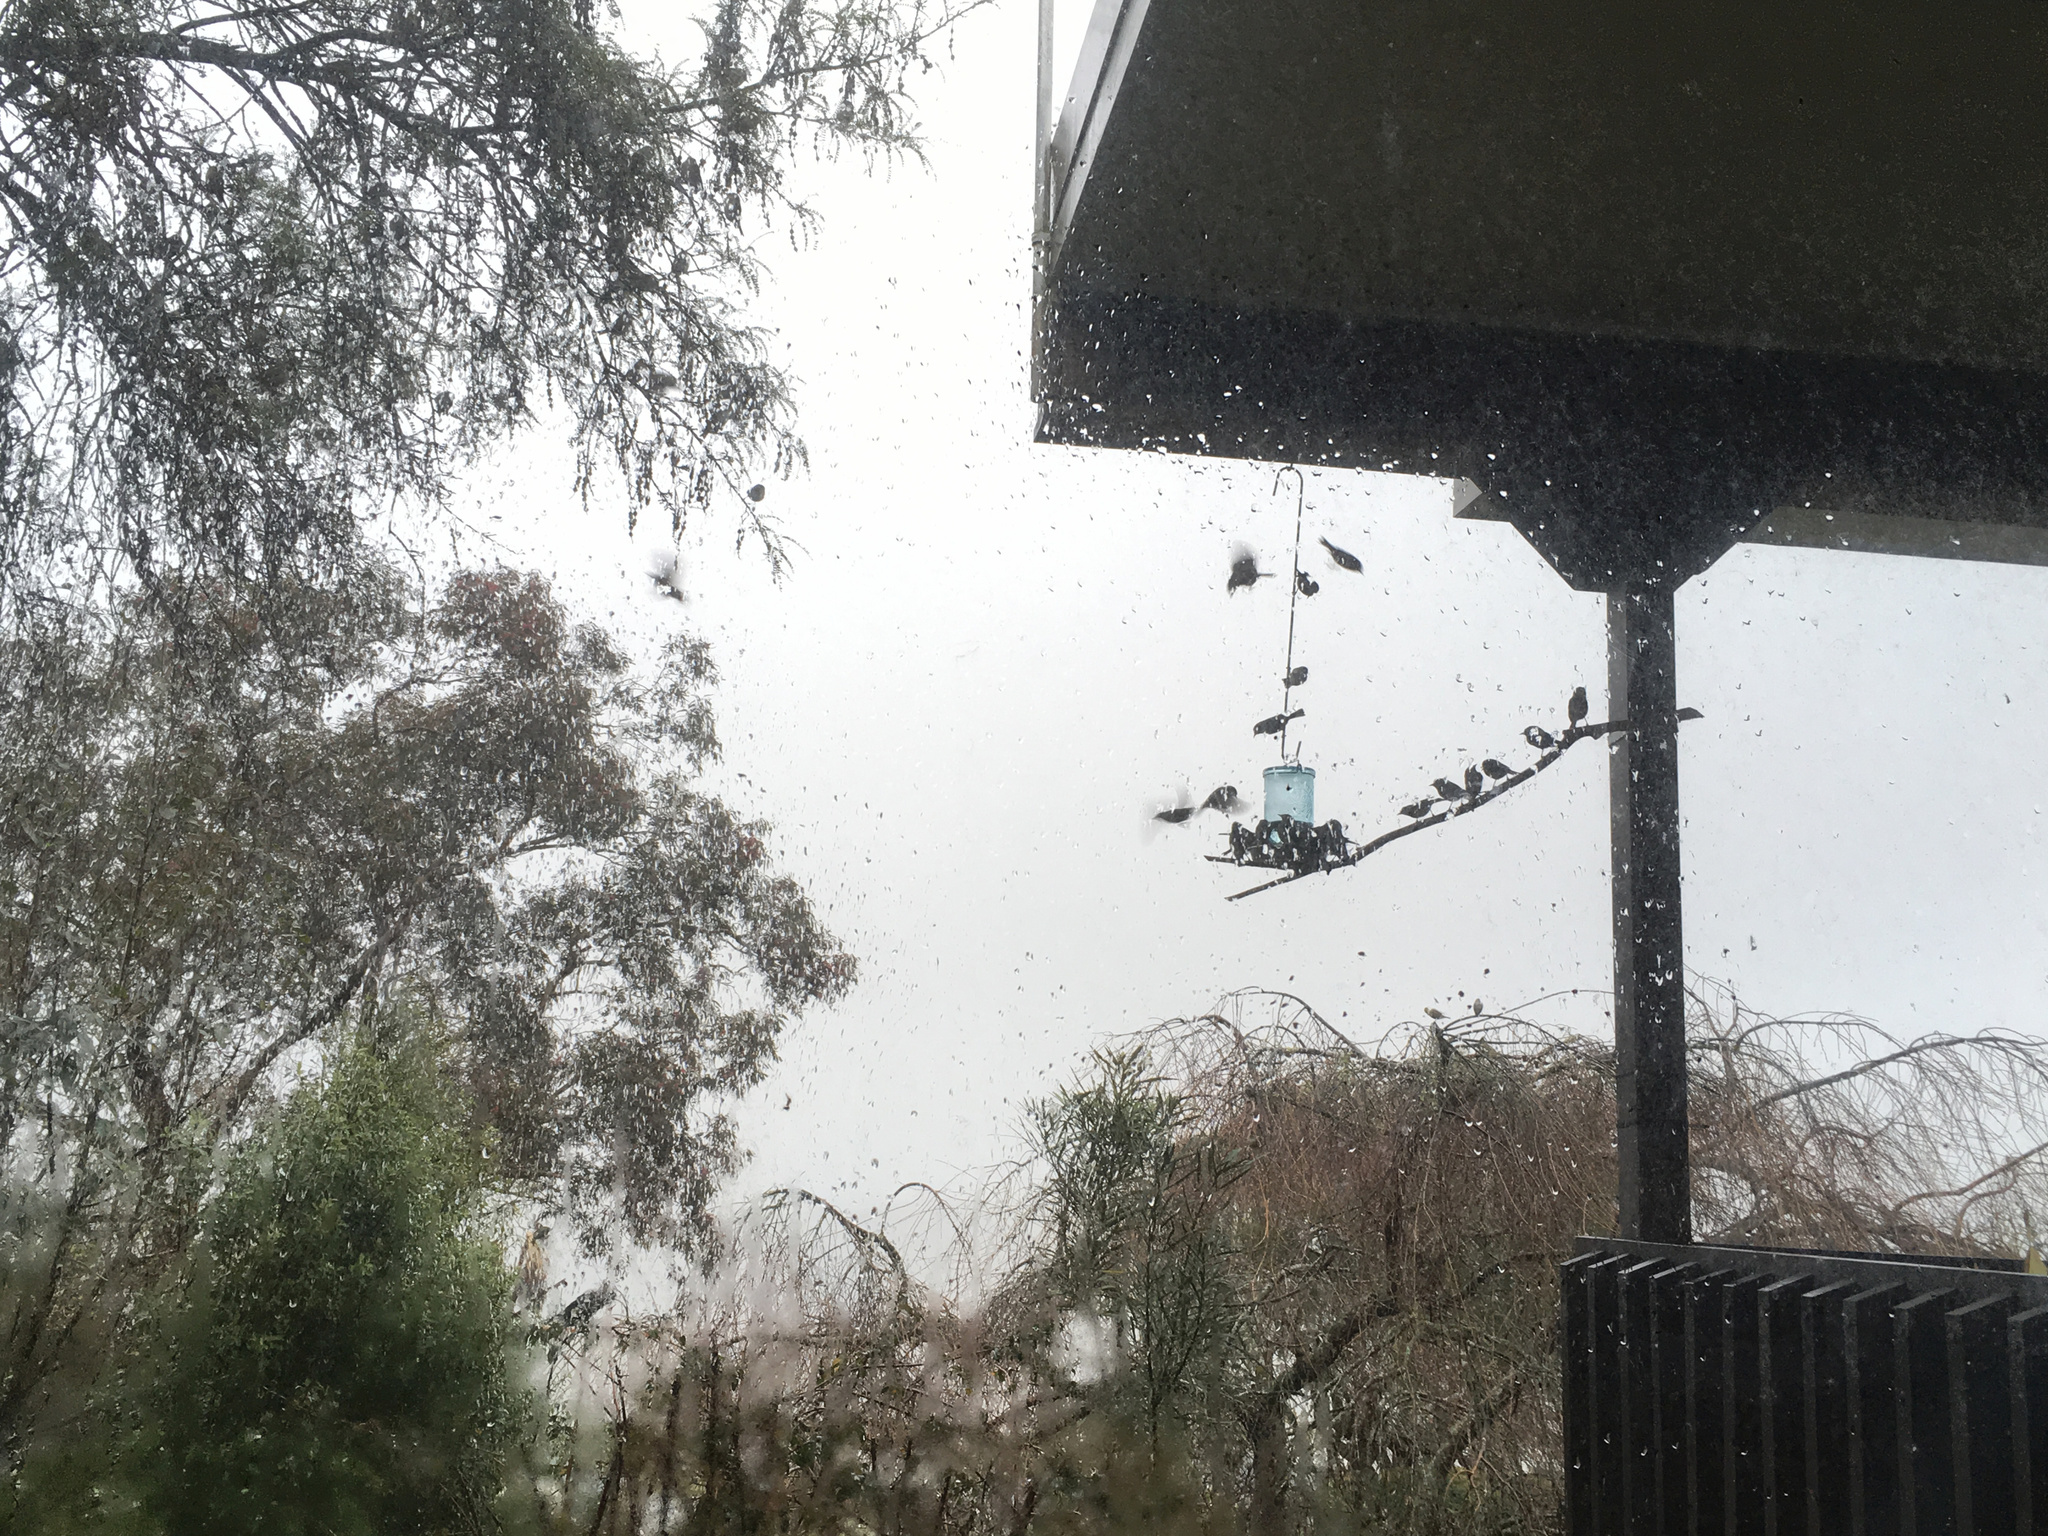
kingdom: Animalia
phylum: Chordata
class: Aves
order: Passeriformes
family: Zosteropidae
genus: Zosterops
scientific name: Zosterops lateralis
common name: Silvereye
